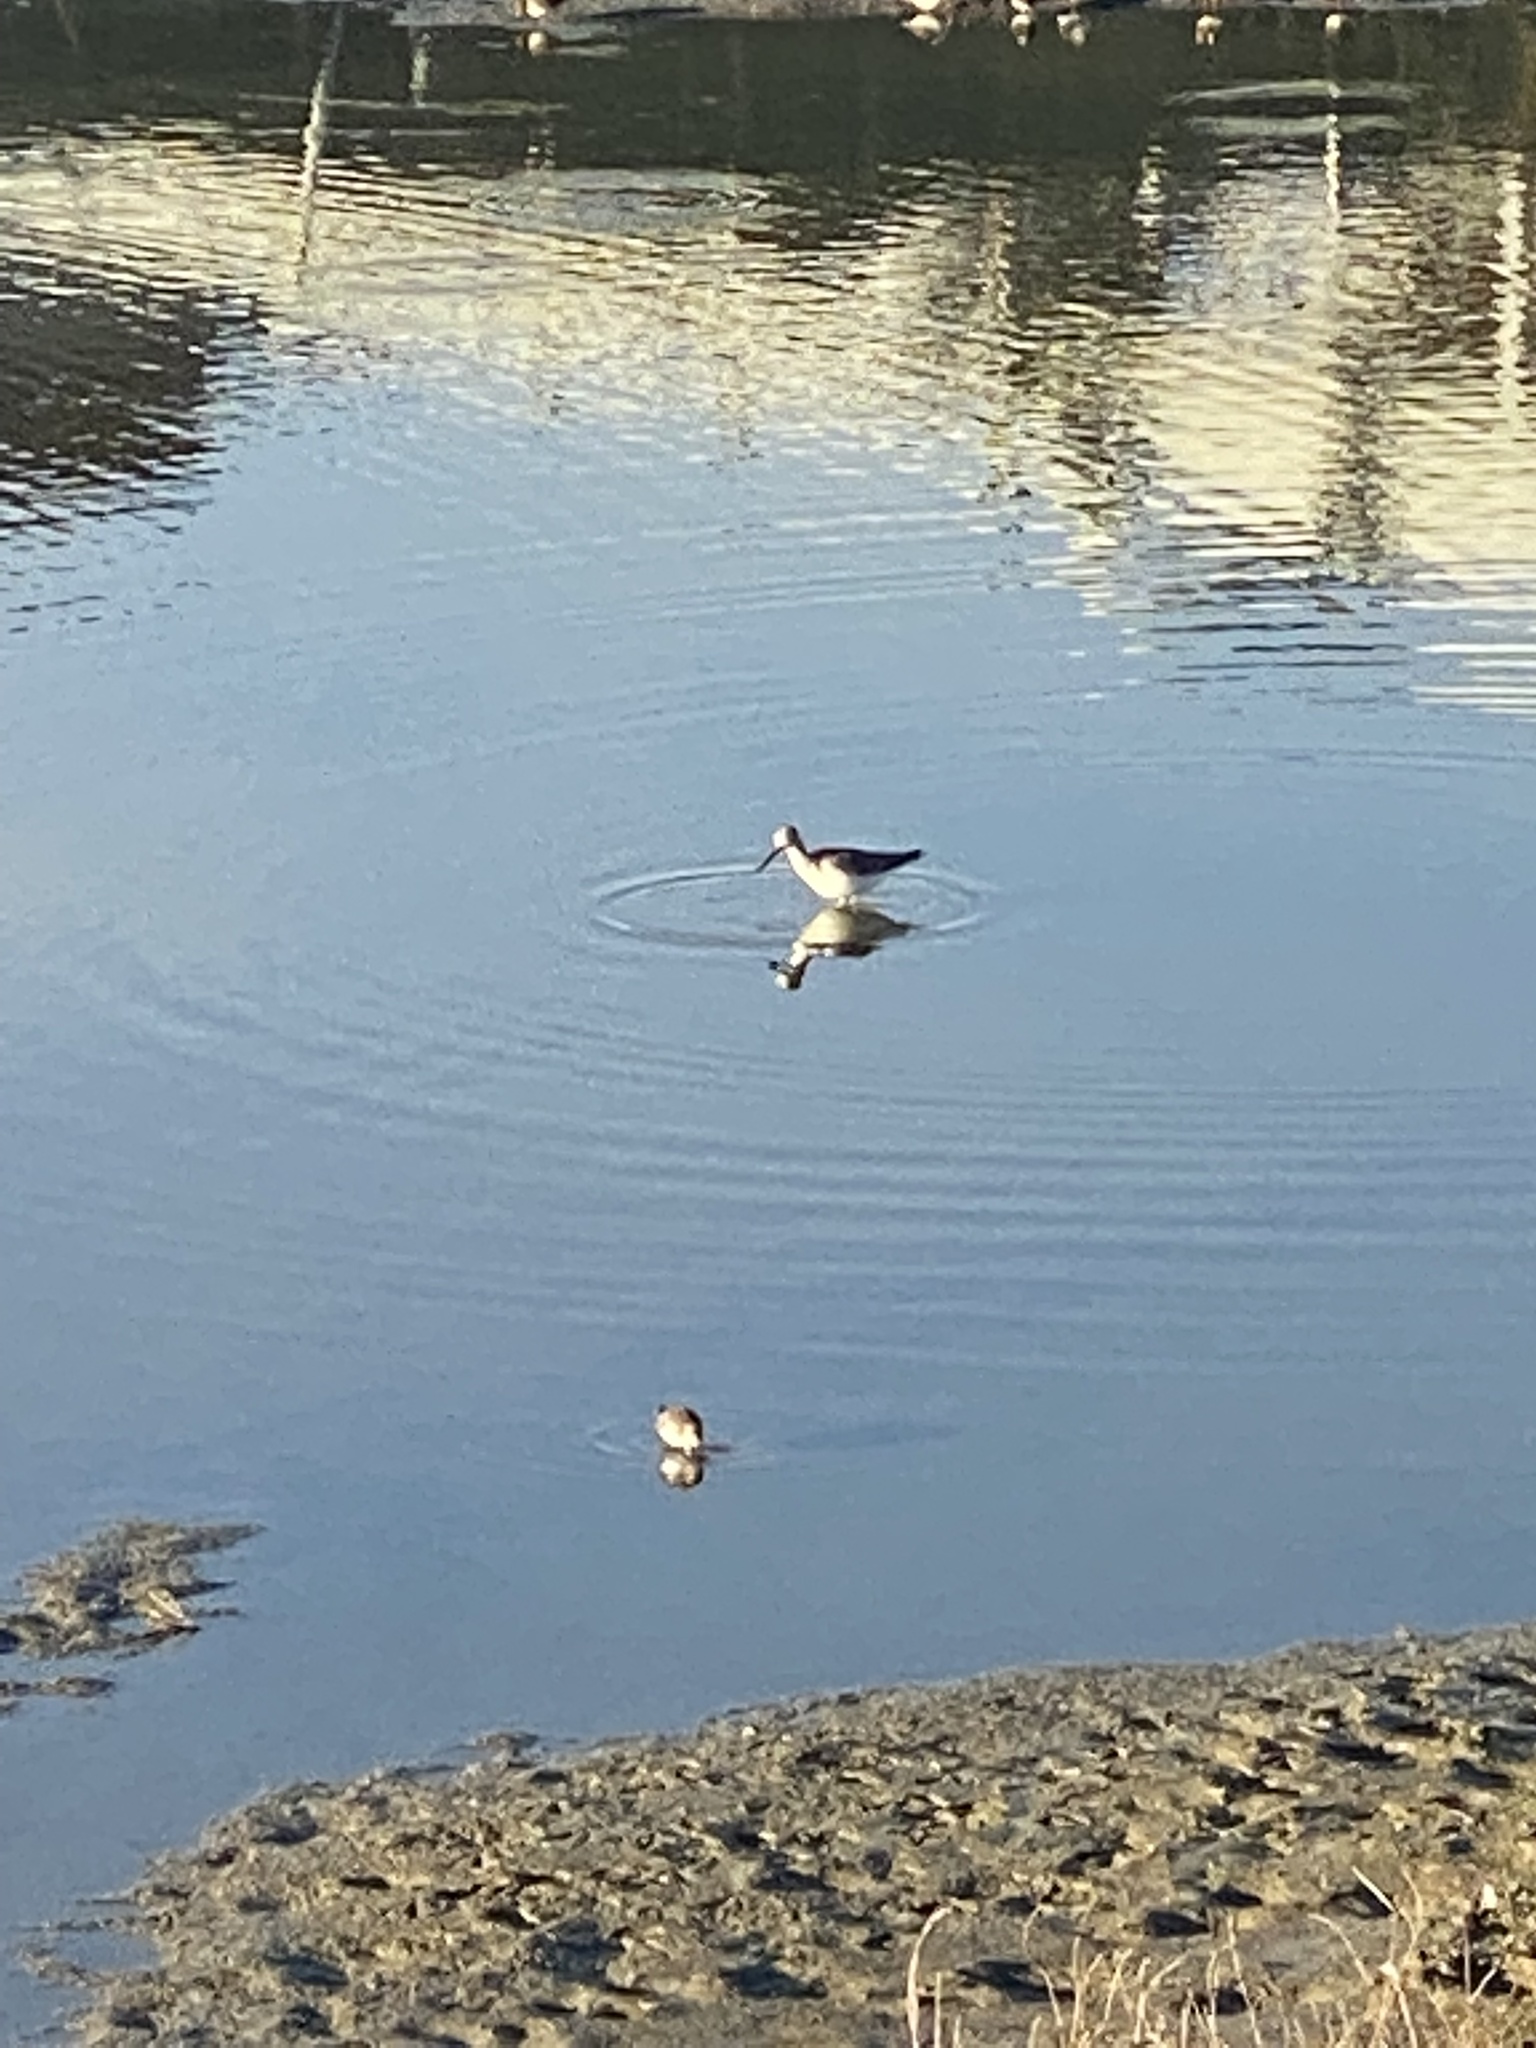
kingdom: Animalia
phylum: Chordata
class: Aves
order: Charadriiformes
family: Scolopacidae
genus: Tringa
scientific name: Tringa melanoleuca
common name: Greater yellowlegs
